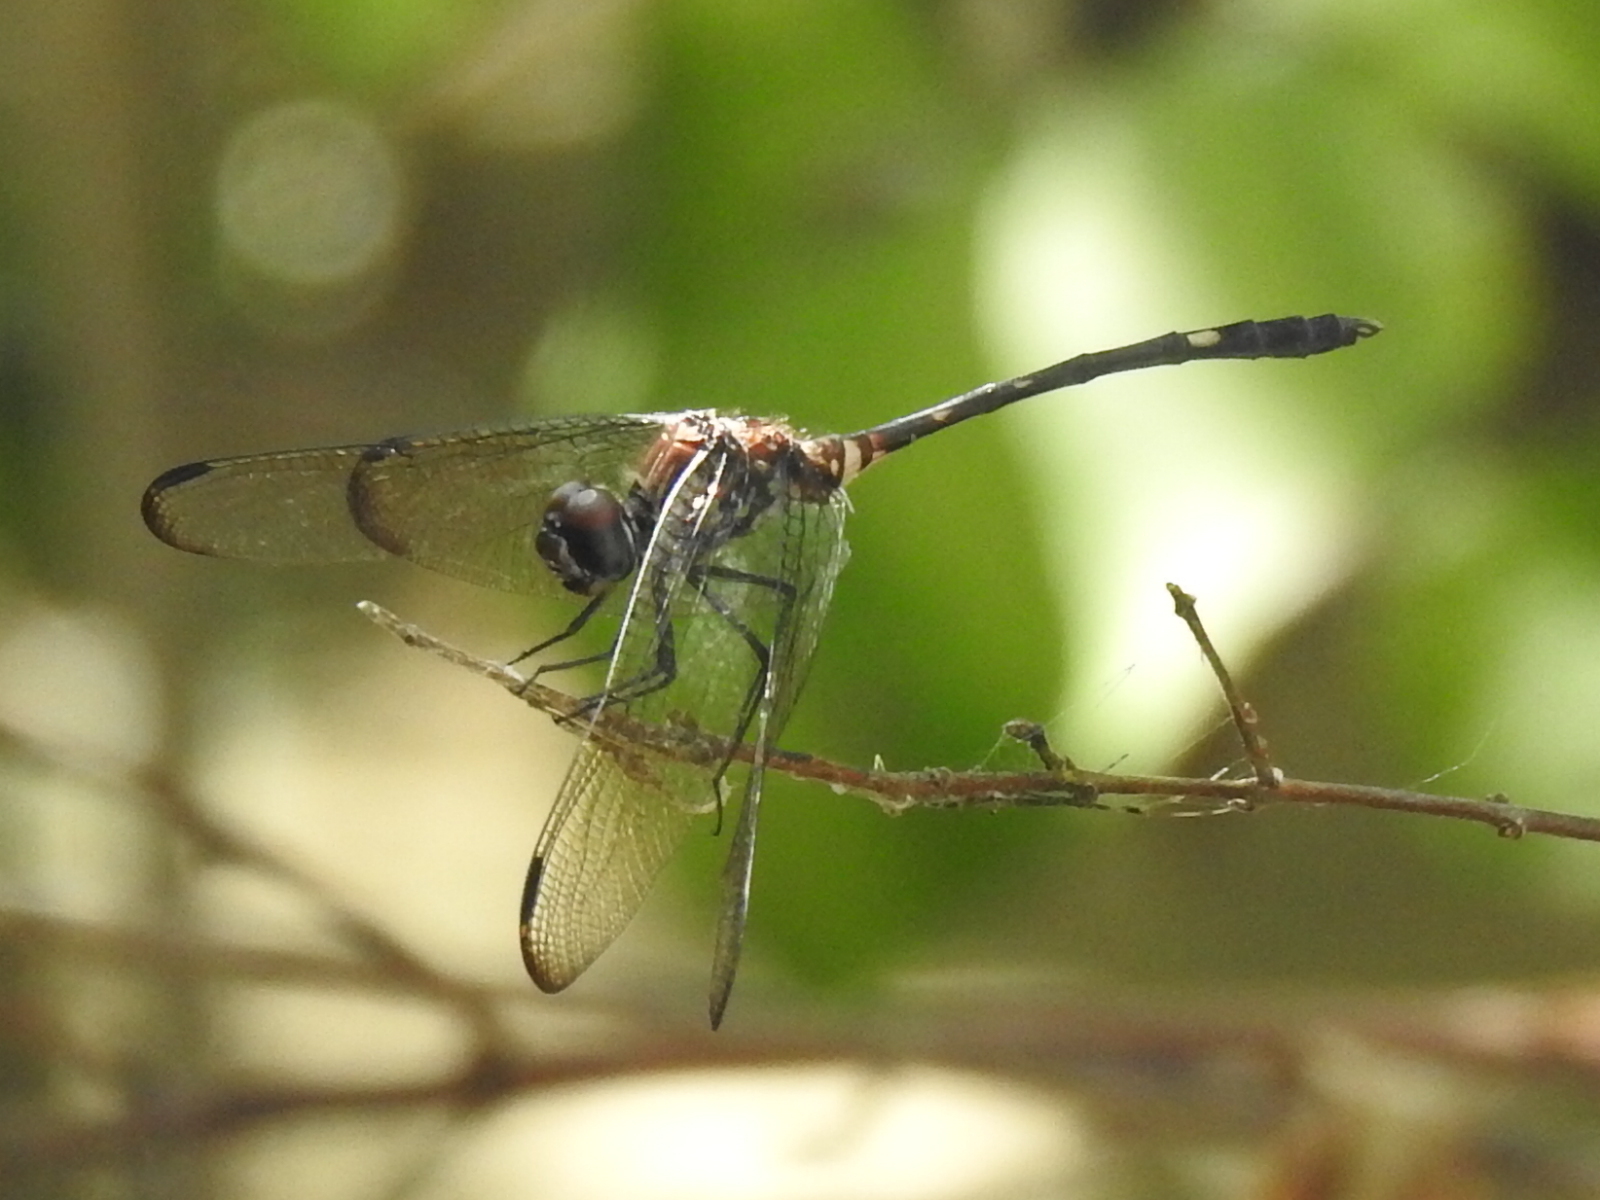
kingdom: Animalia
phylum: Arthropoda
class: Insecta
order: Odonata
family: Libellulidae
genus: Dythemis
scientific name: Dythemis velox
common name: Swift setwing
